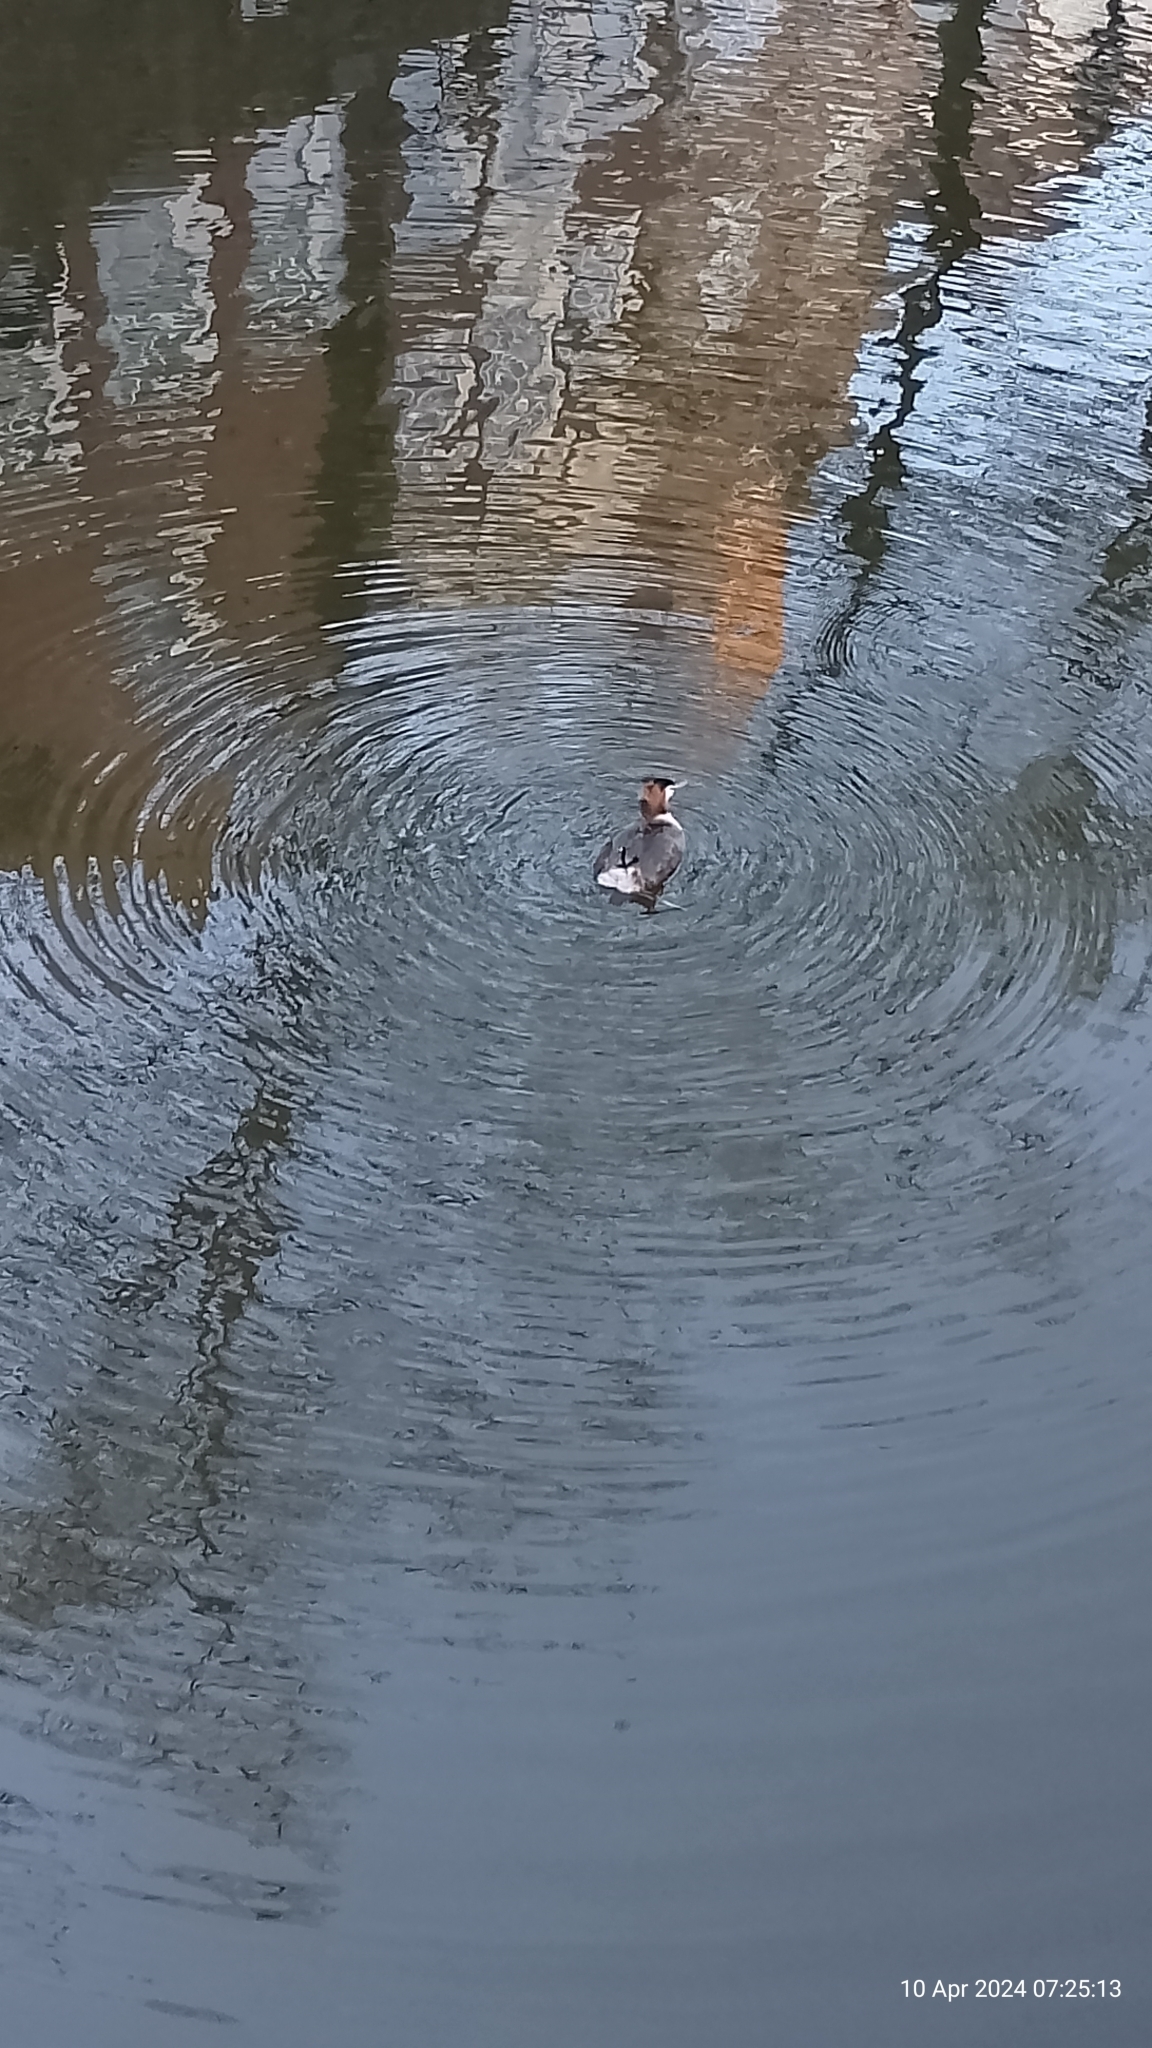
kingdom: Animalia
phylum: Chordata
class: Aves
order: Podicipediformes
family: Podicipedidae
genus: Podiceps
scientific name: Podiceps cristatus
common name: Great crested grebe
